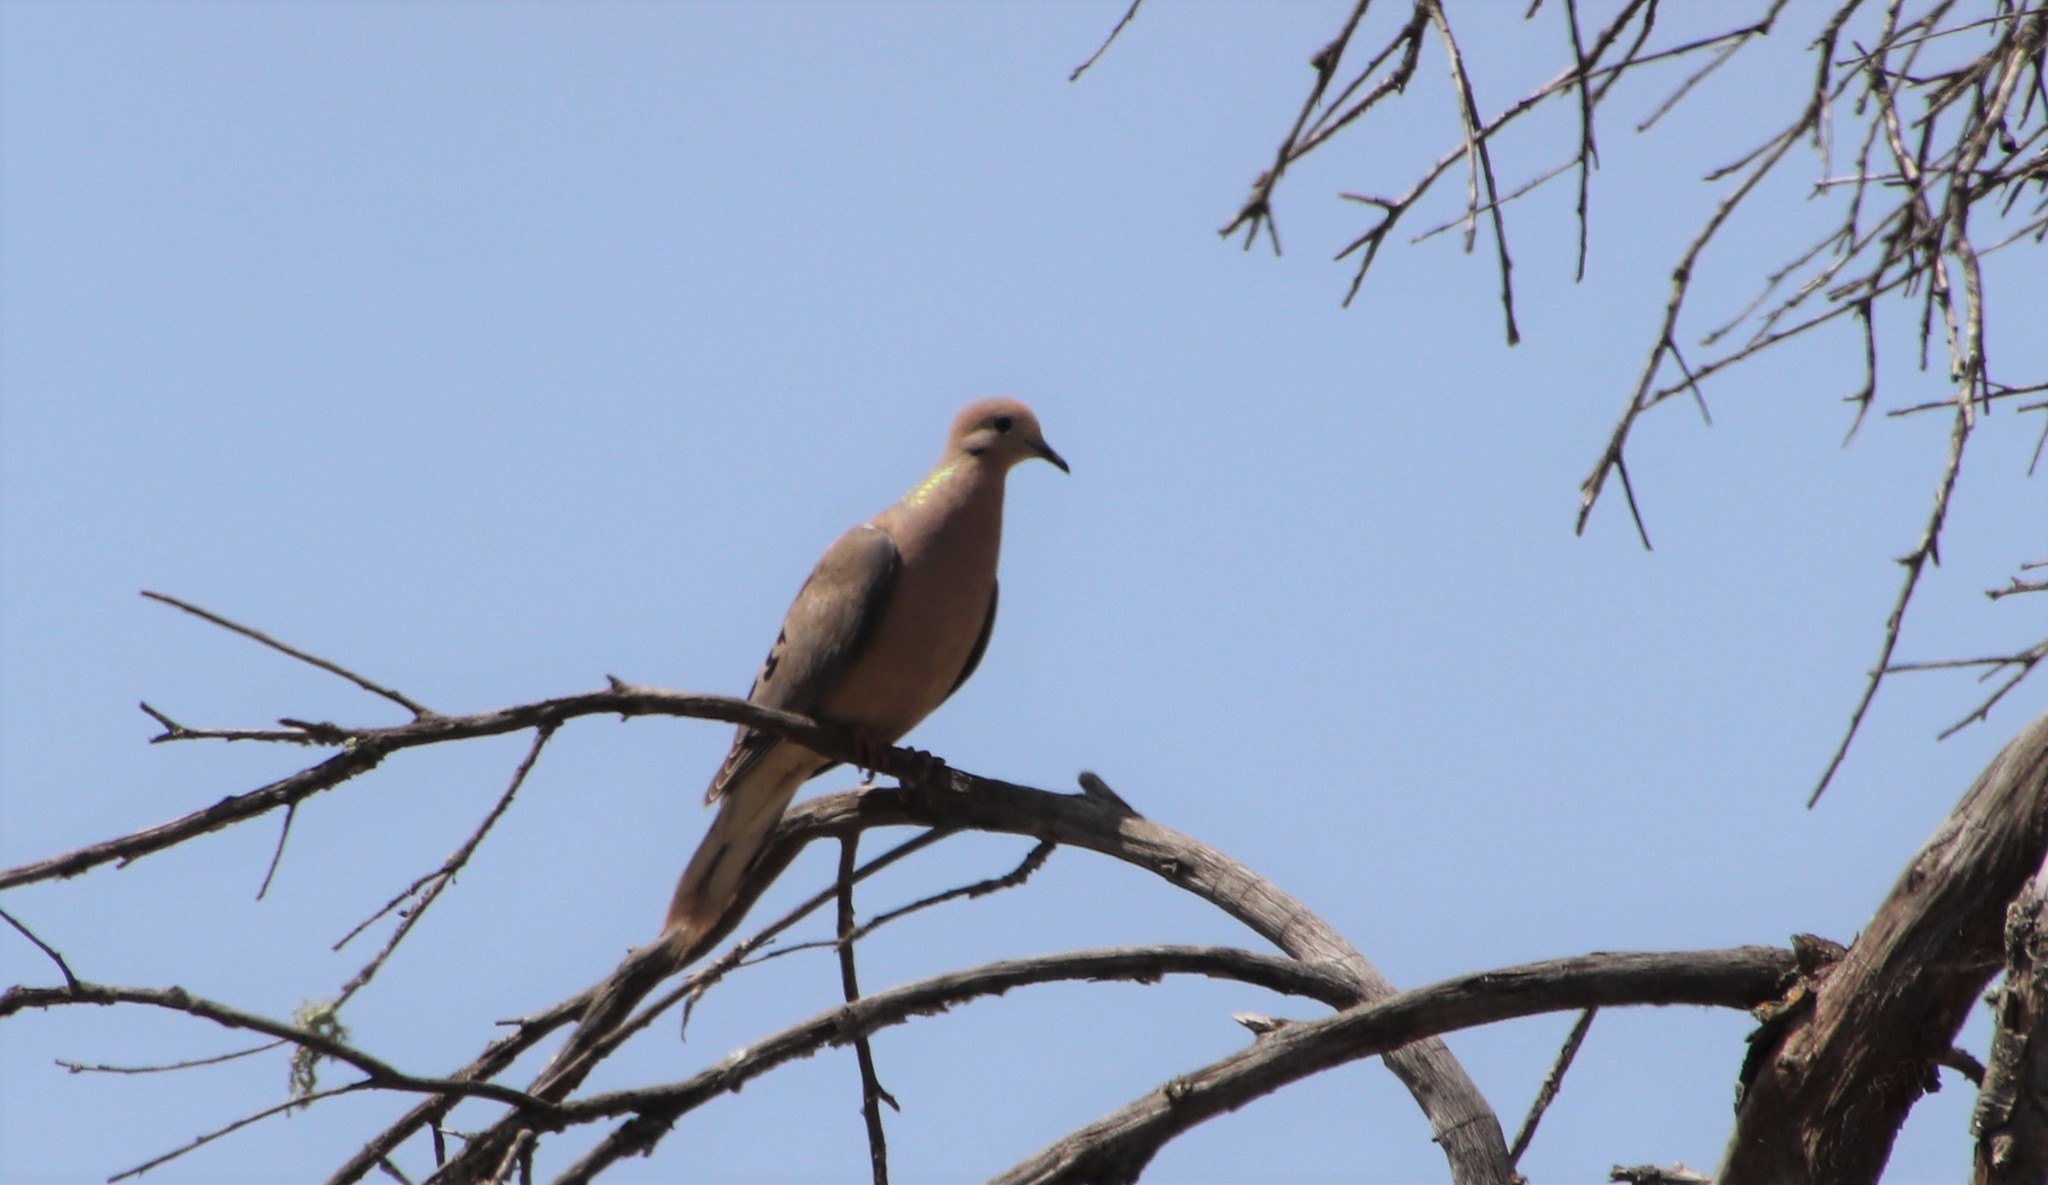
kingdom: Animalia
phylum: Chordata
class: Aves
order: Columbiformes
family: Columbidae
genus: Zenaida
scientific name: Zenaida macroura
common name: Mourning dove
